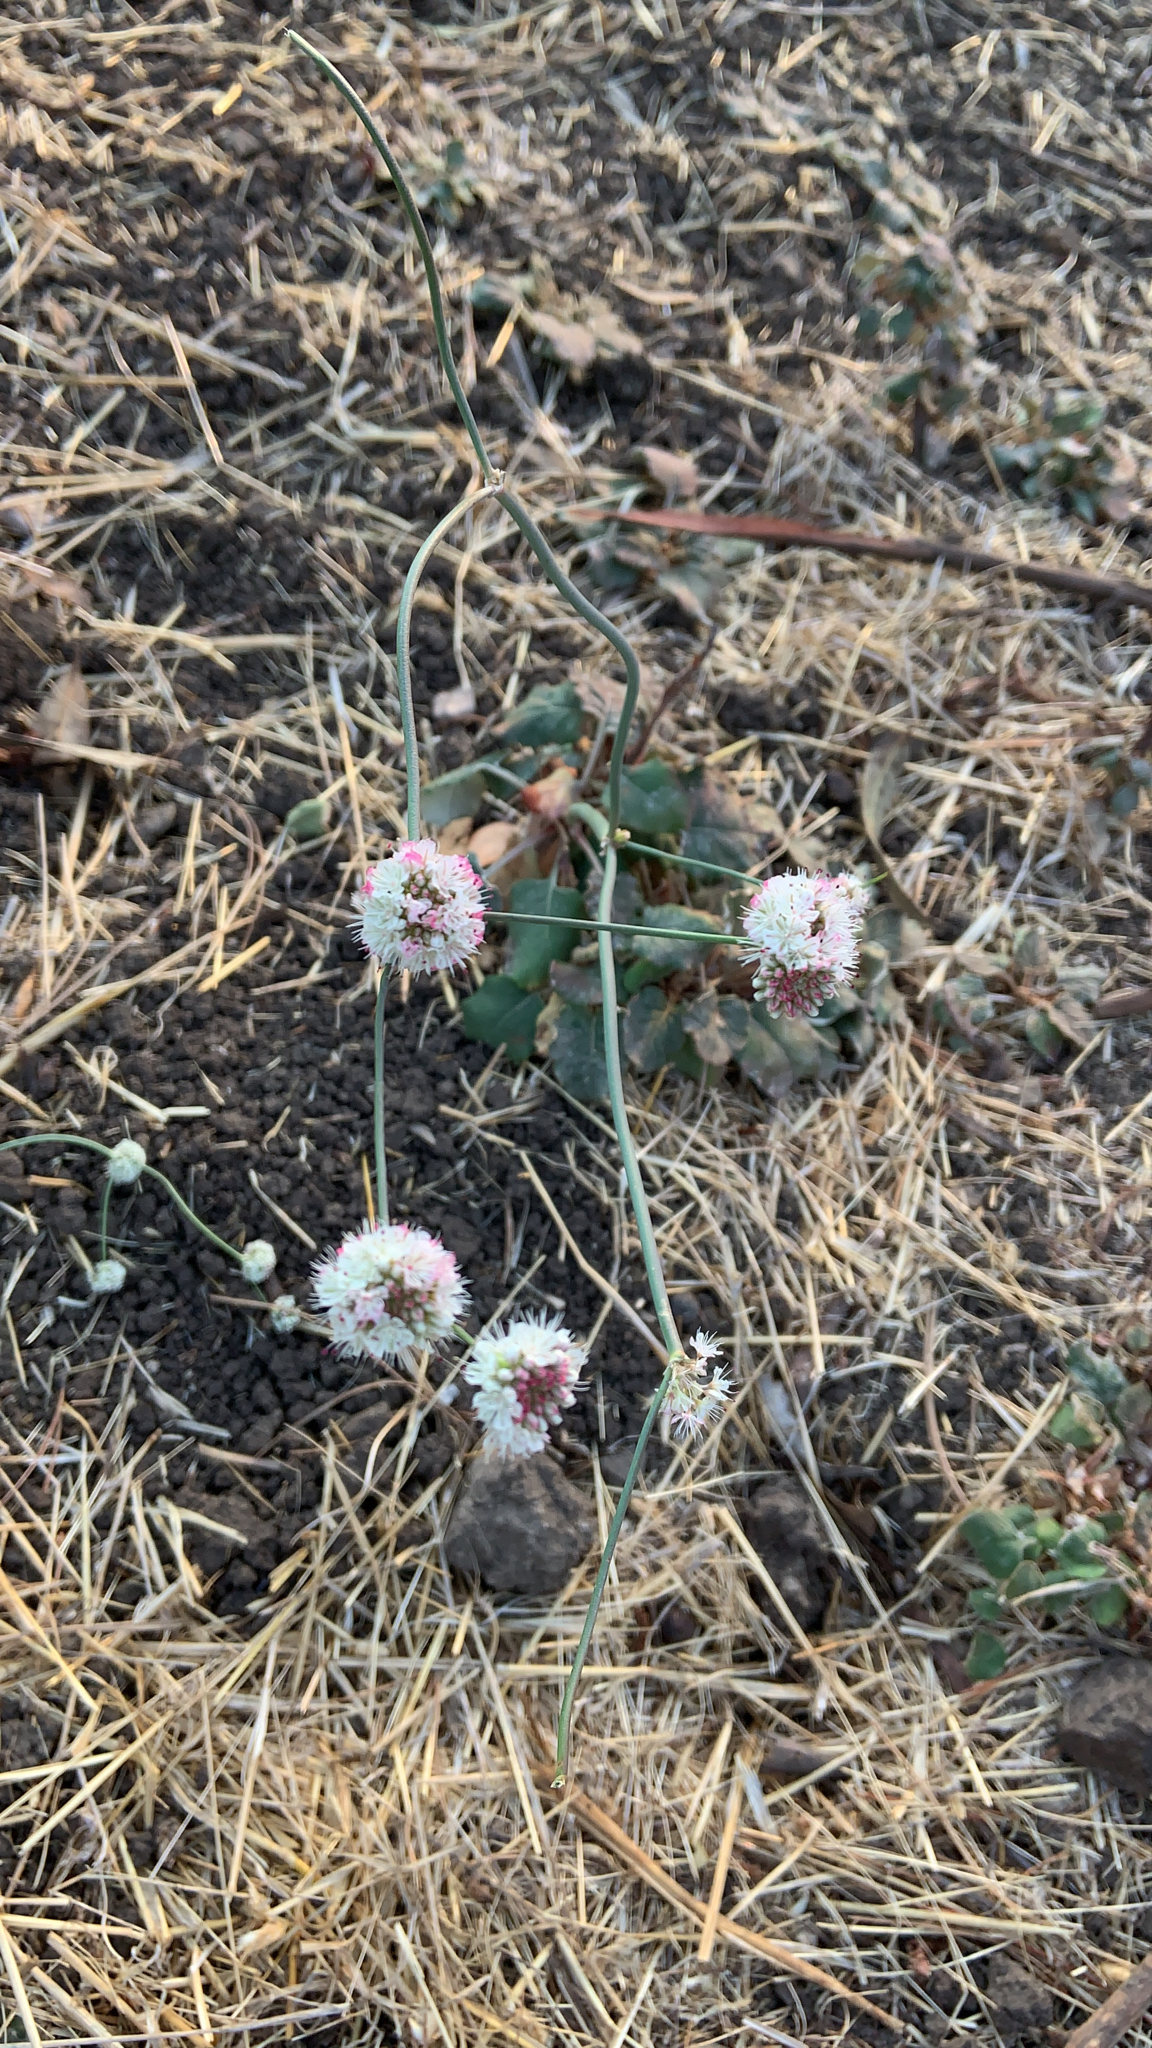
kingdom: Plantae
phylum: Tracheophyta
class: Magnoliopsida
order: Caryophyllales
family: Polygonaceae
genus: Eriogonum
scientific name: Eriogonum nudum
